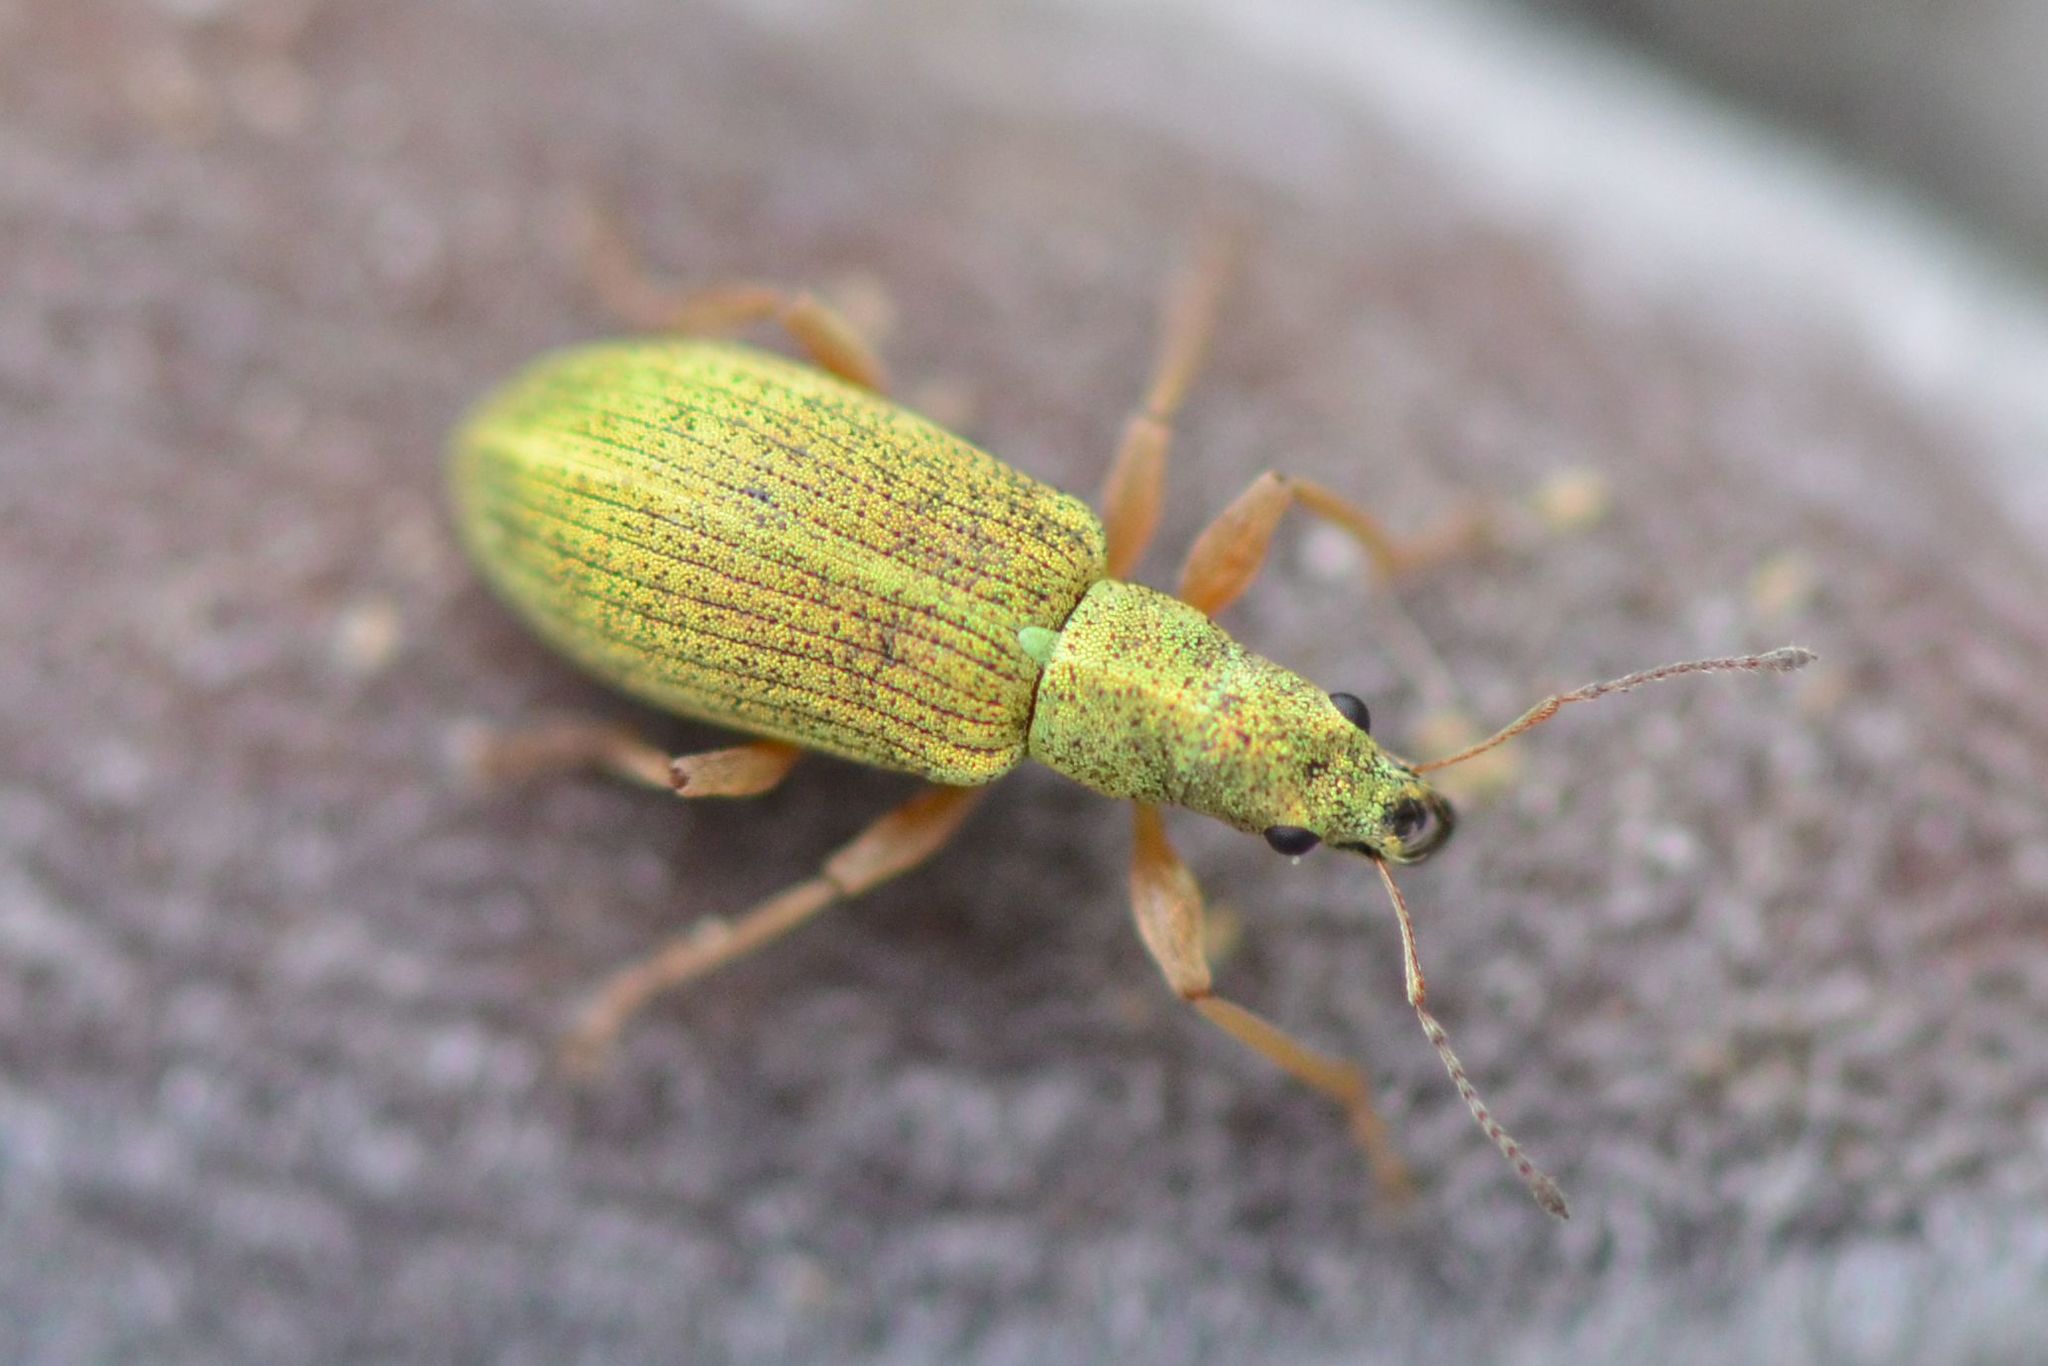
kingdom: Animalia
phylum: Arthropoda
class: Insecta
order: Coleoptera
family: Curculionidae
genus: Polydrusus
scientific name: Polydrusus impressifrons
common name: Weevil
